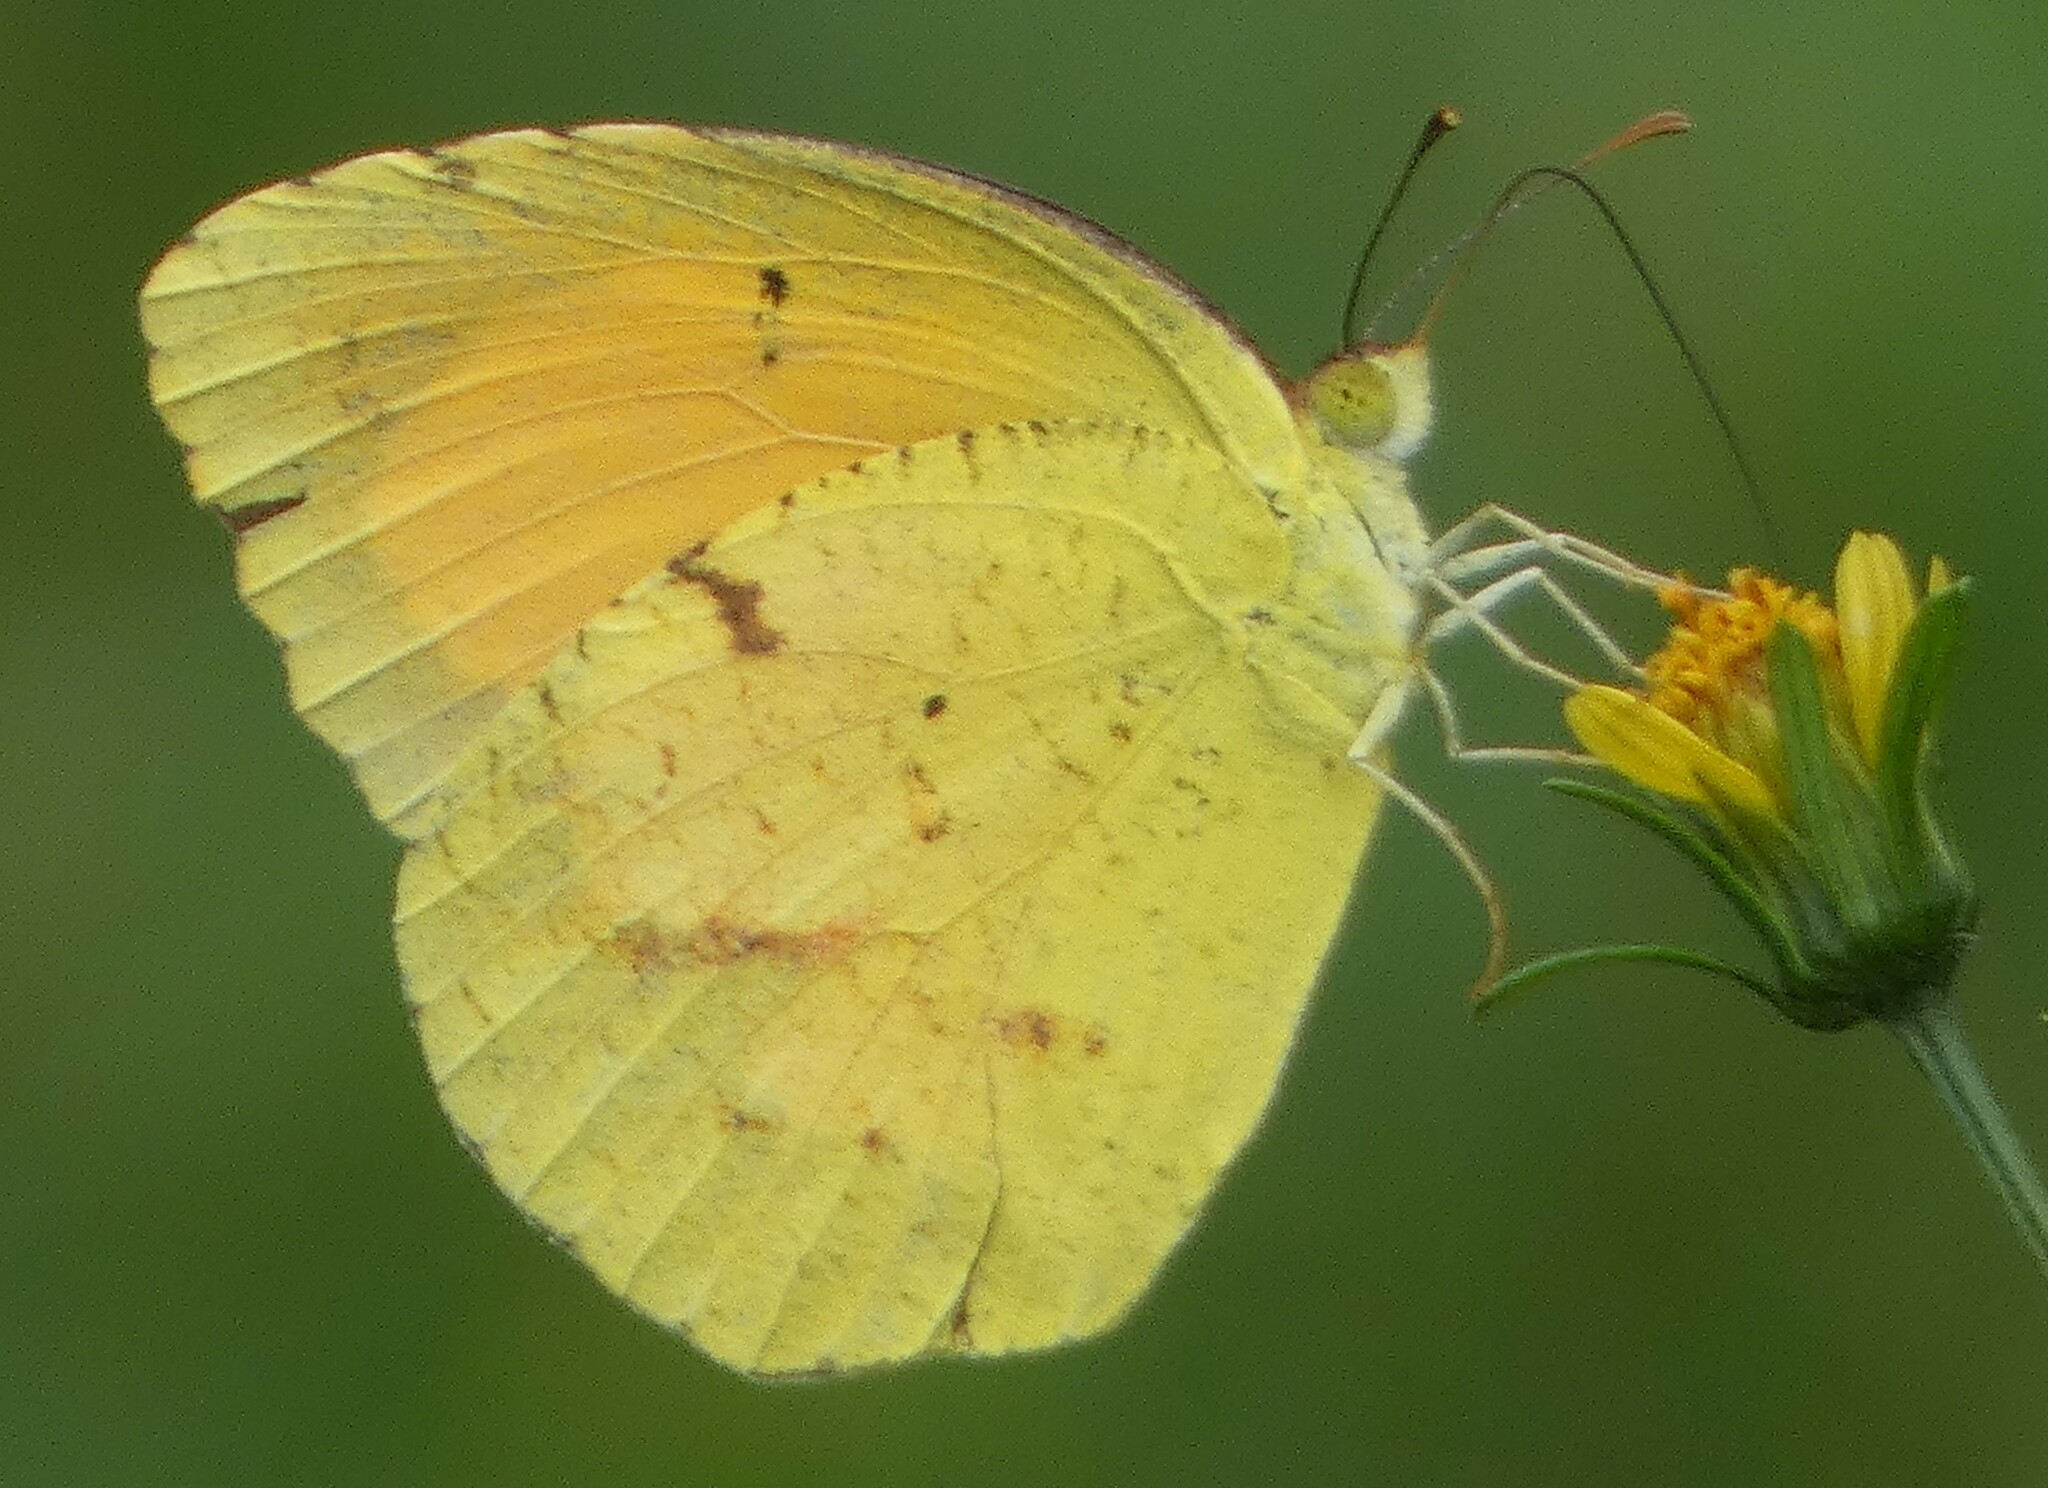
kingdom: Animalia
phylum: Arthropoda
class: Insecta
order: Lepidoptera
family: Pieridae
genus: Abaeis
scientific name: Abaeis nicippe
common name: Sleepy orange
